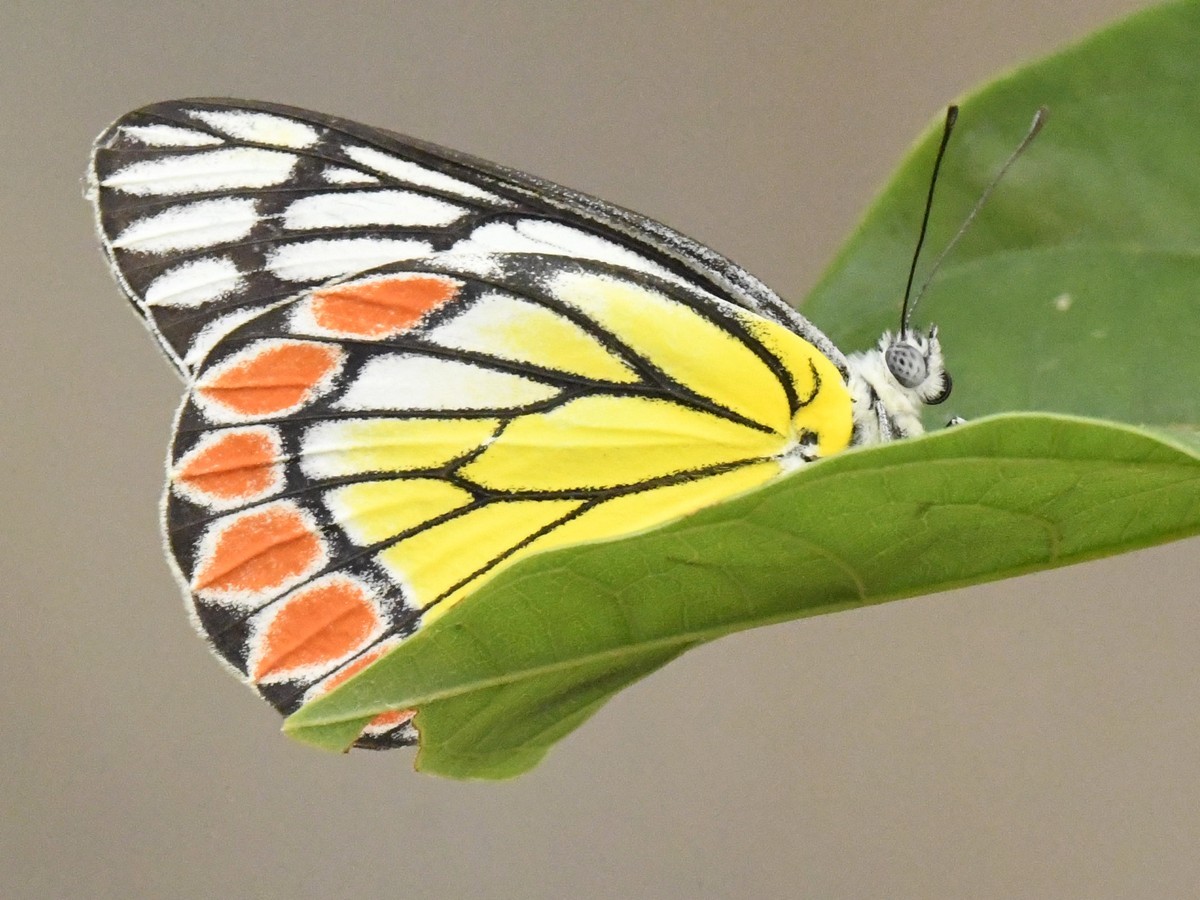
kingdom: Animalia
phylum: Arthropoda
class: Insecta
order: Lepidoptera
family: Pieridae
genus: Delias
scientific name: Delias eucharis
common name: Common jezebel
